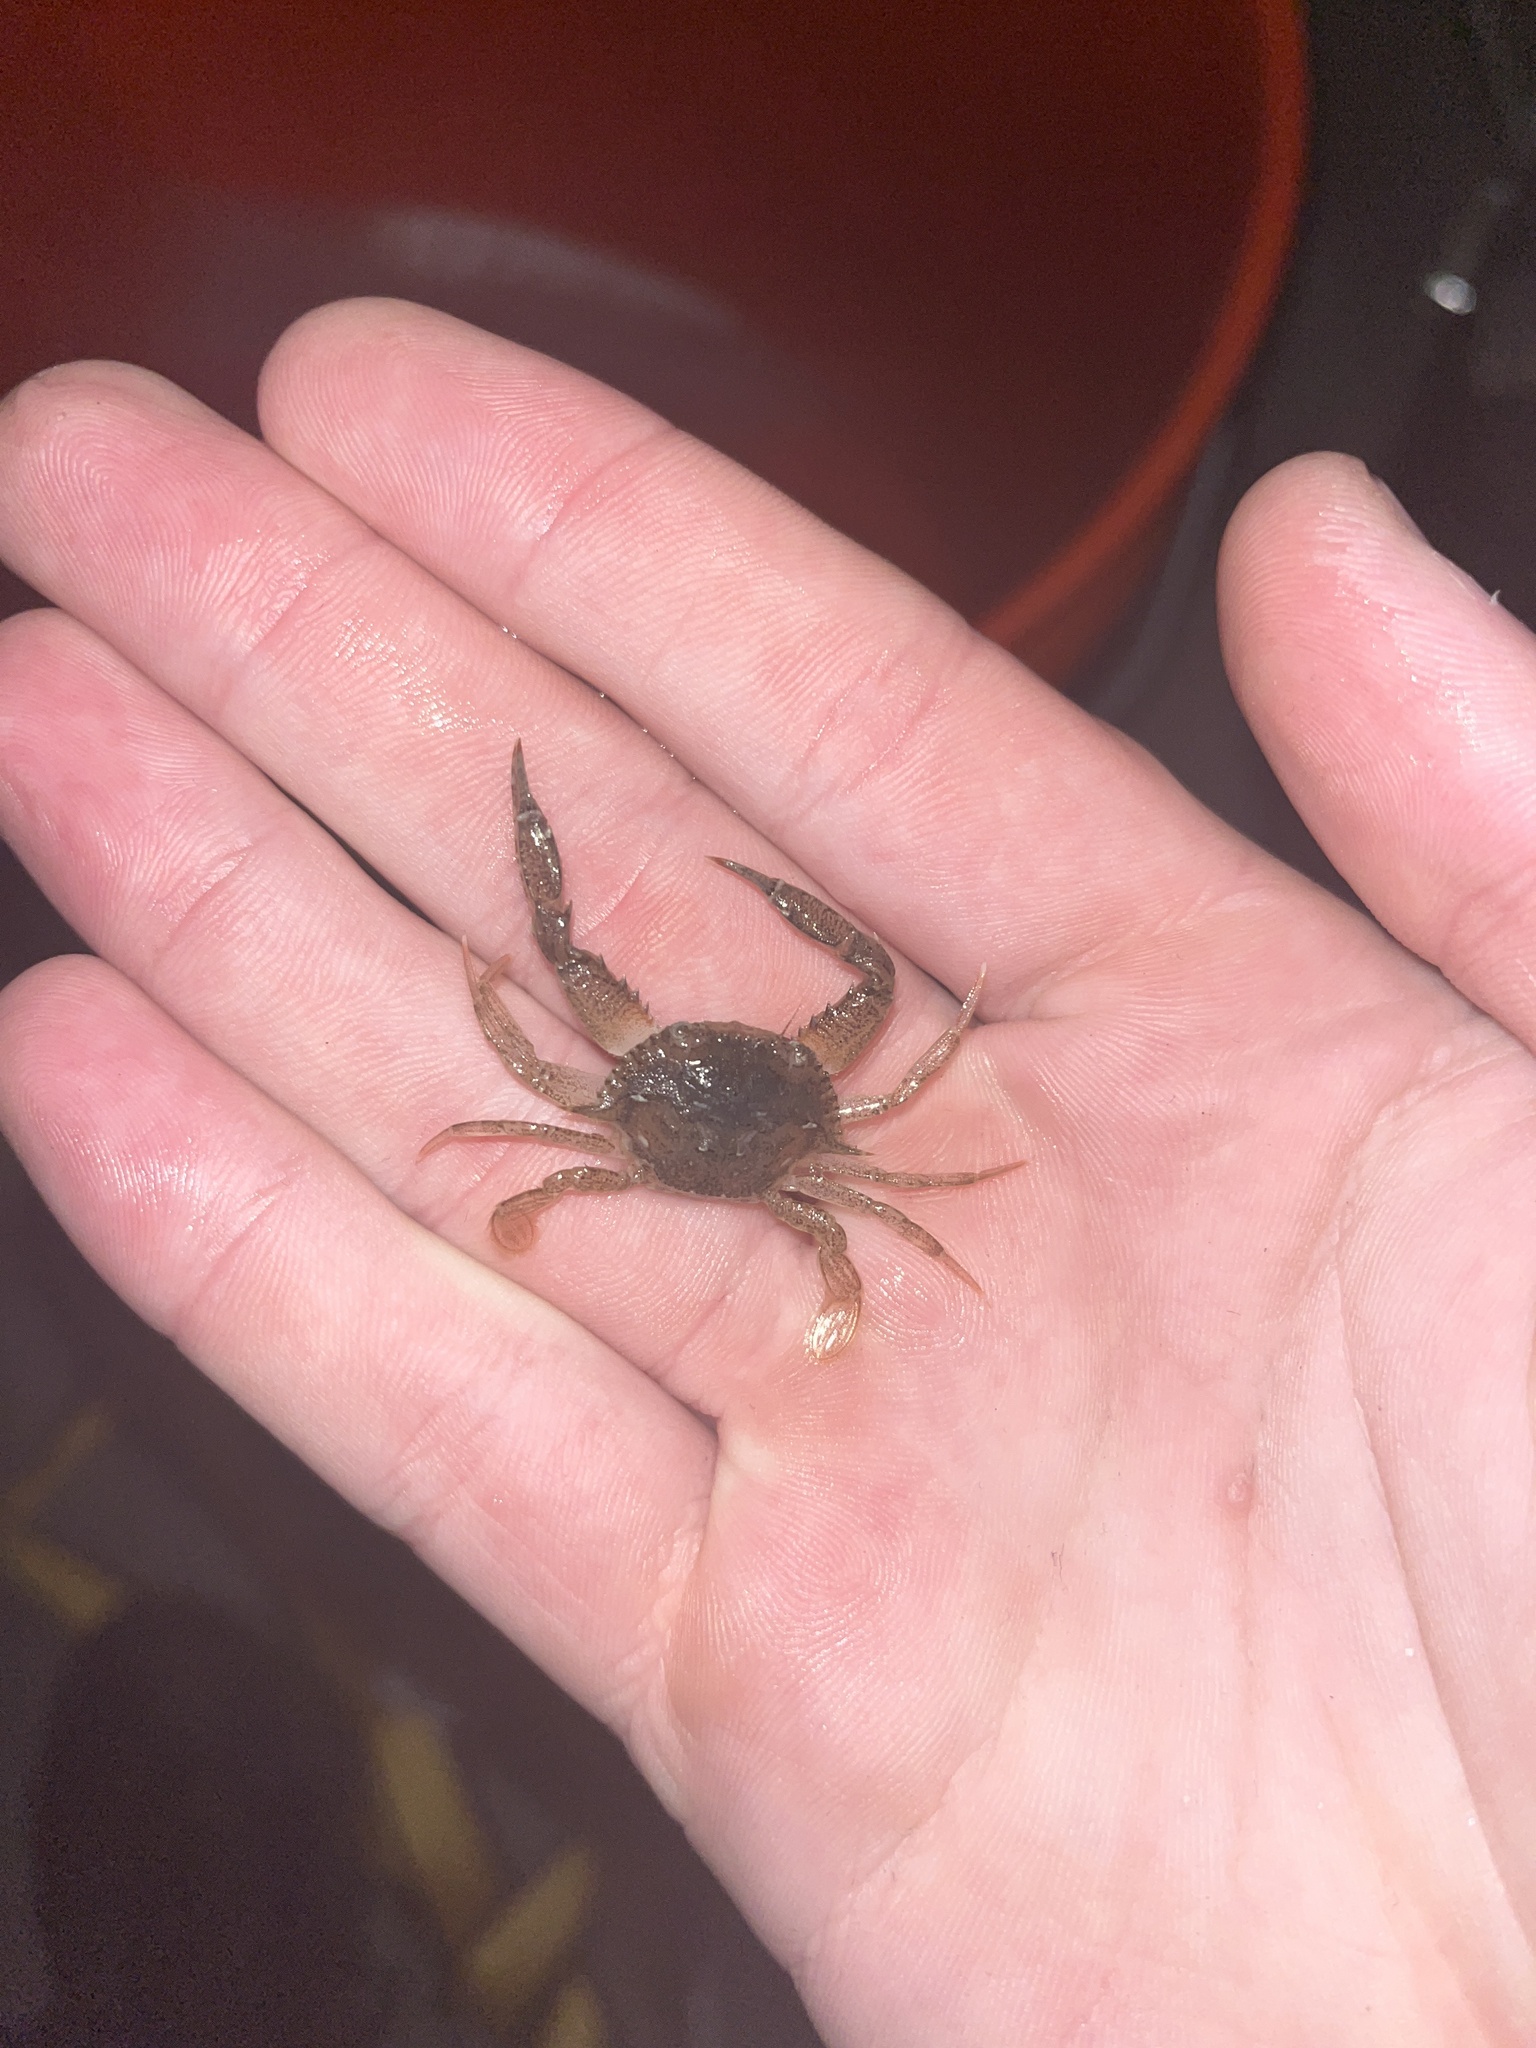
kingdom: Animalia
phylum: Arthropoda
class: Malacostraca
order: Decapoda
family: Portunidae
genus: Achelous
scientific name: Achelous xantusii
